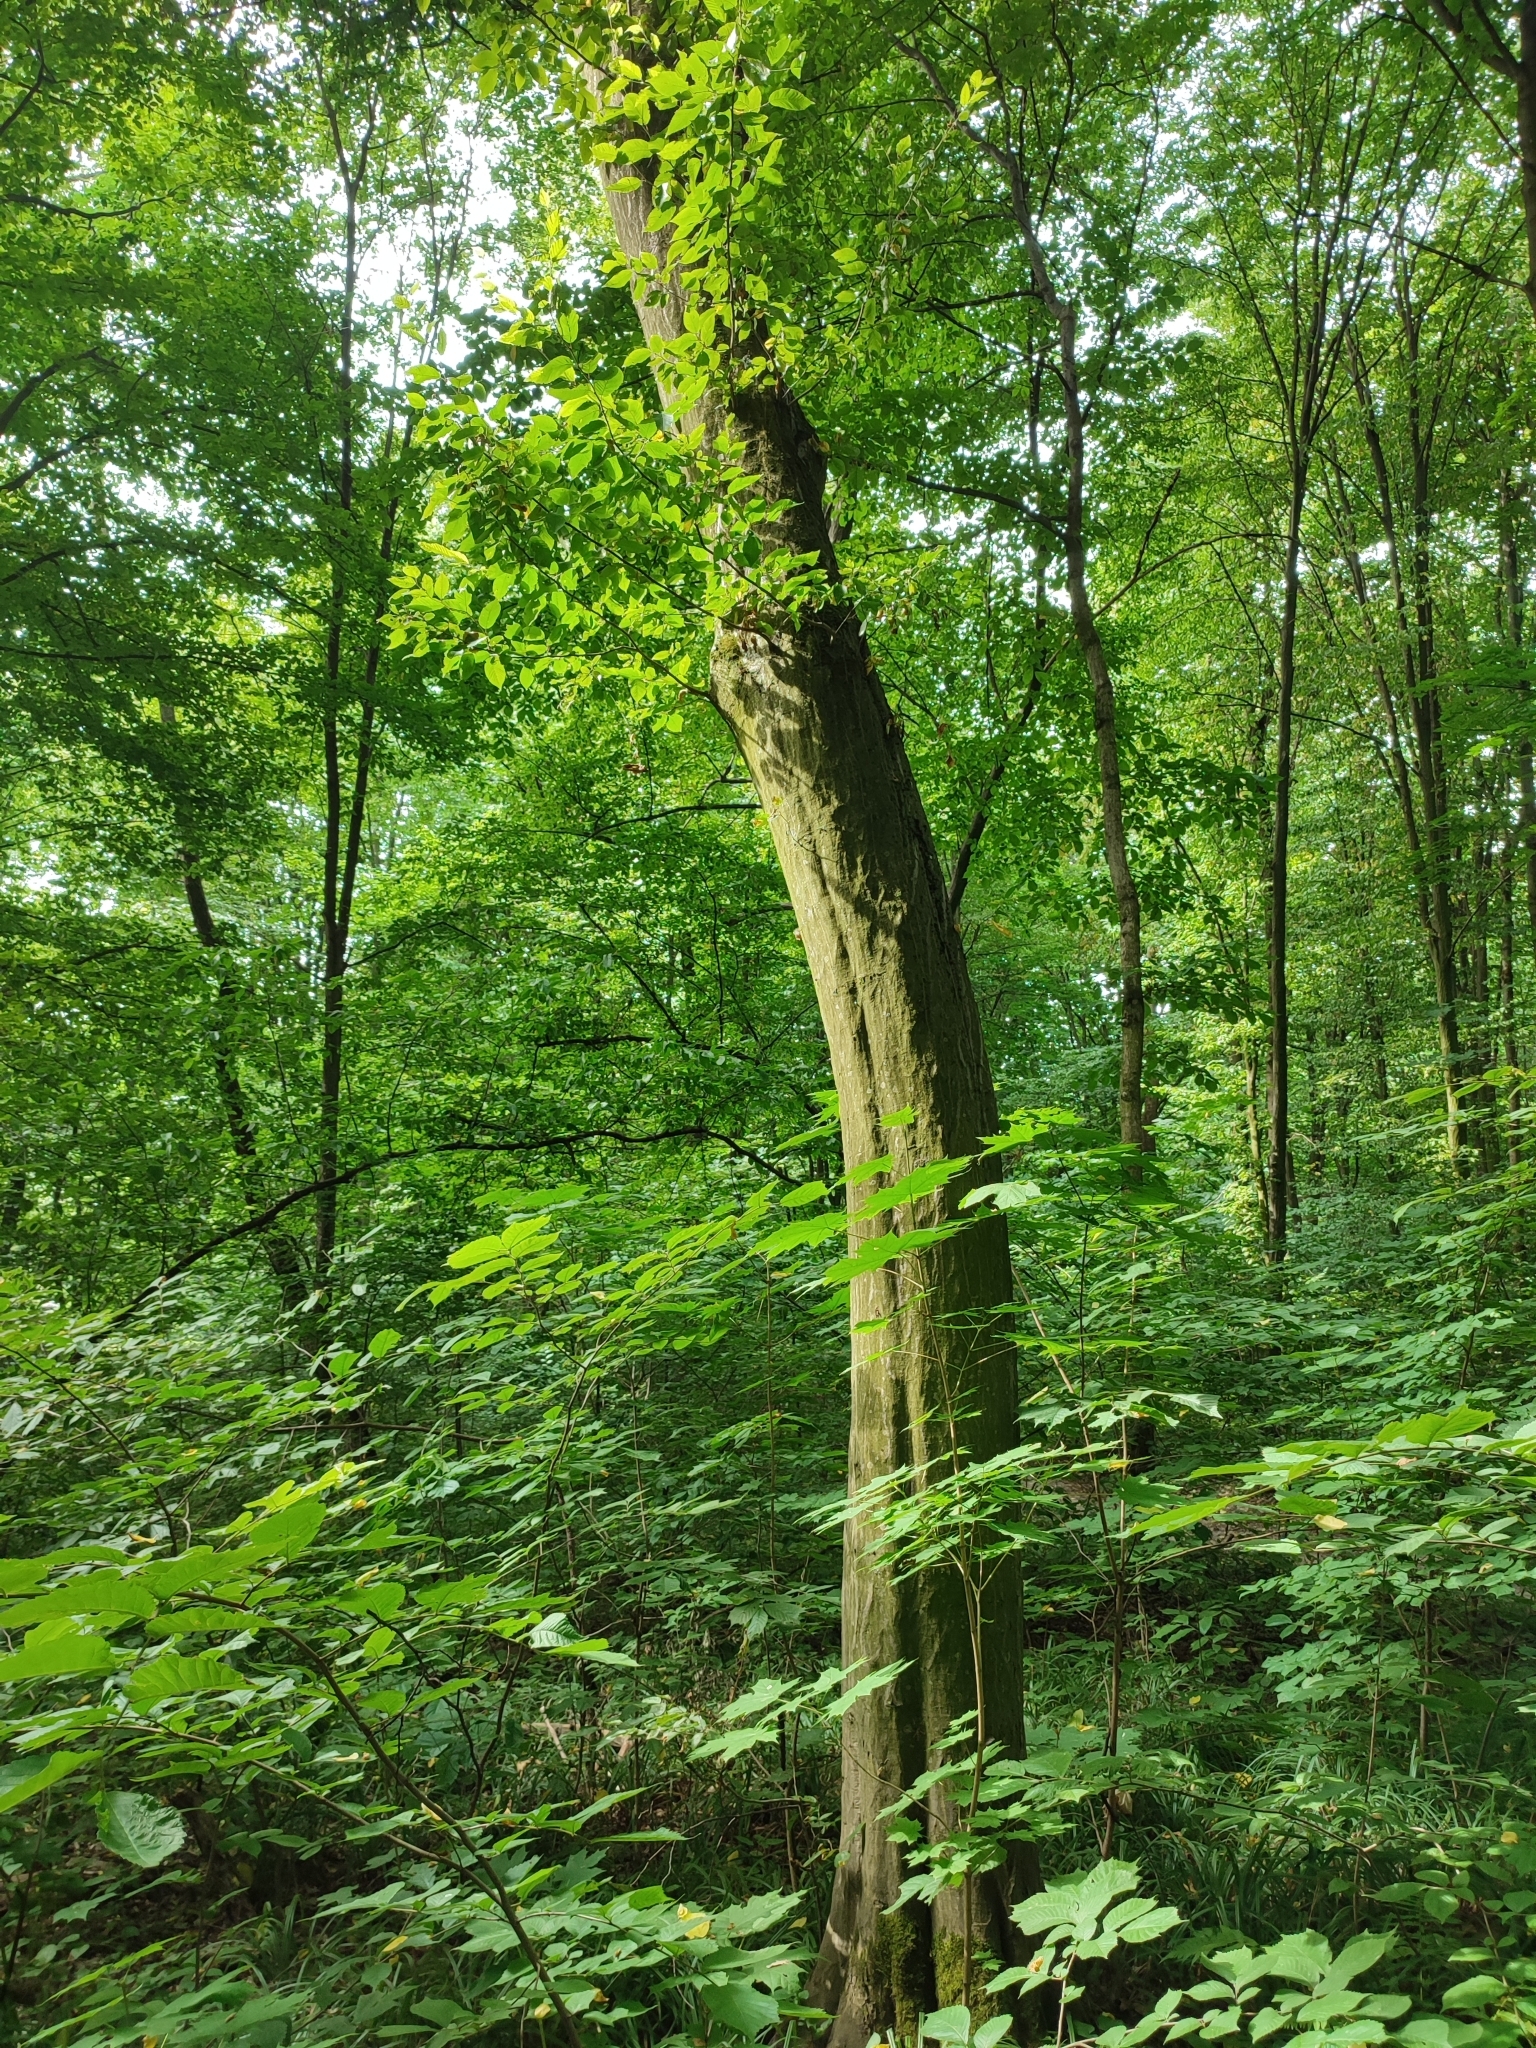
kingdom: Plantae
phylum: Tracheophyta
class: Magnoliopsida
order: Fagales
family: Betulaceae
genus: Carpinus
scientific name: Carpinus betulus
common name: Hornbeam
